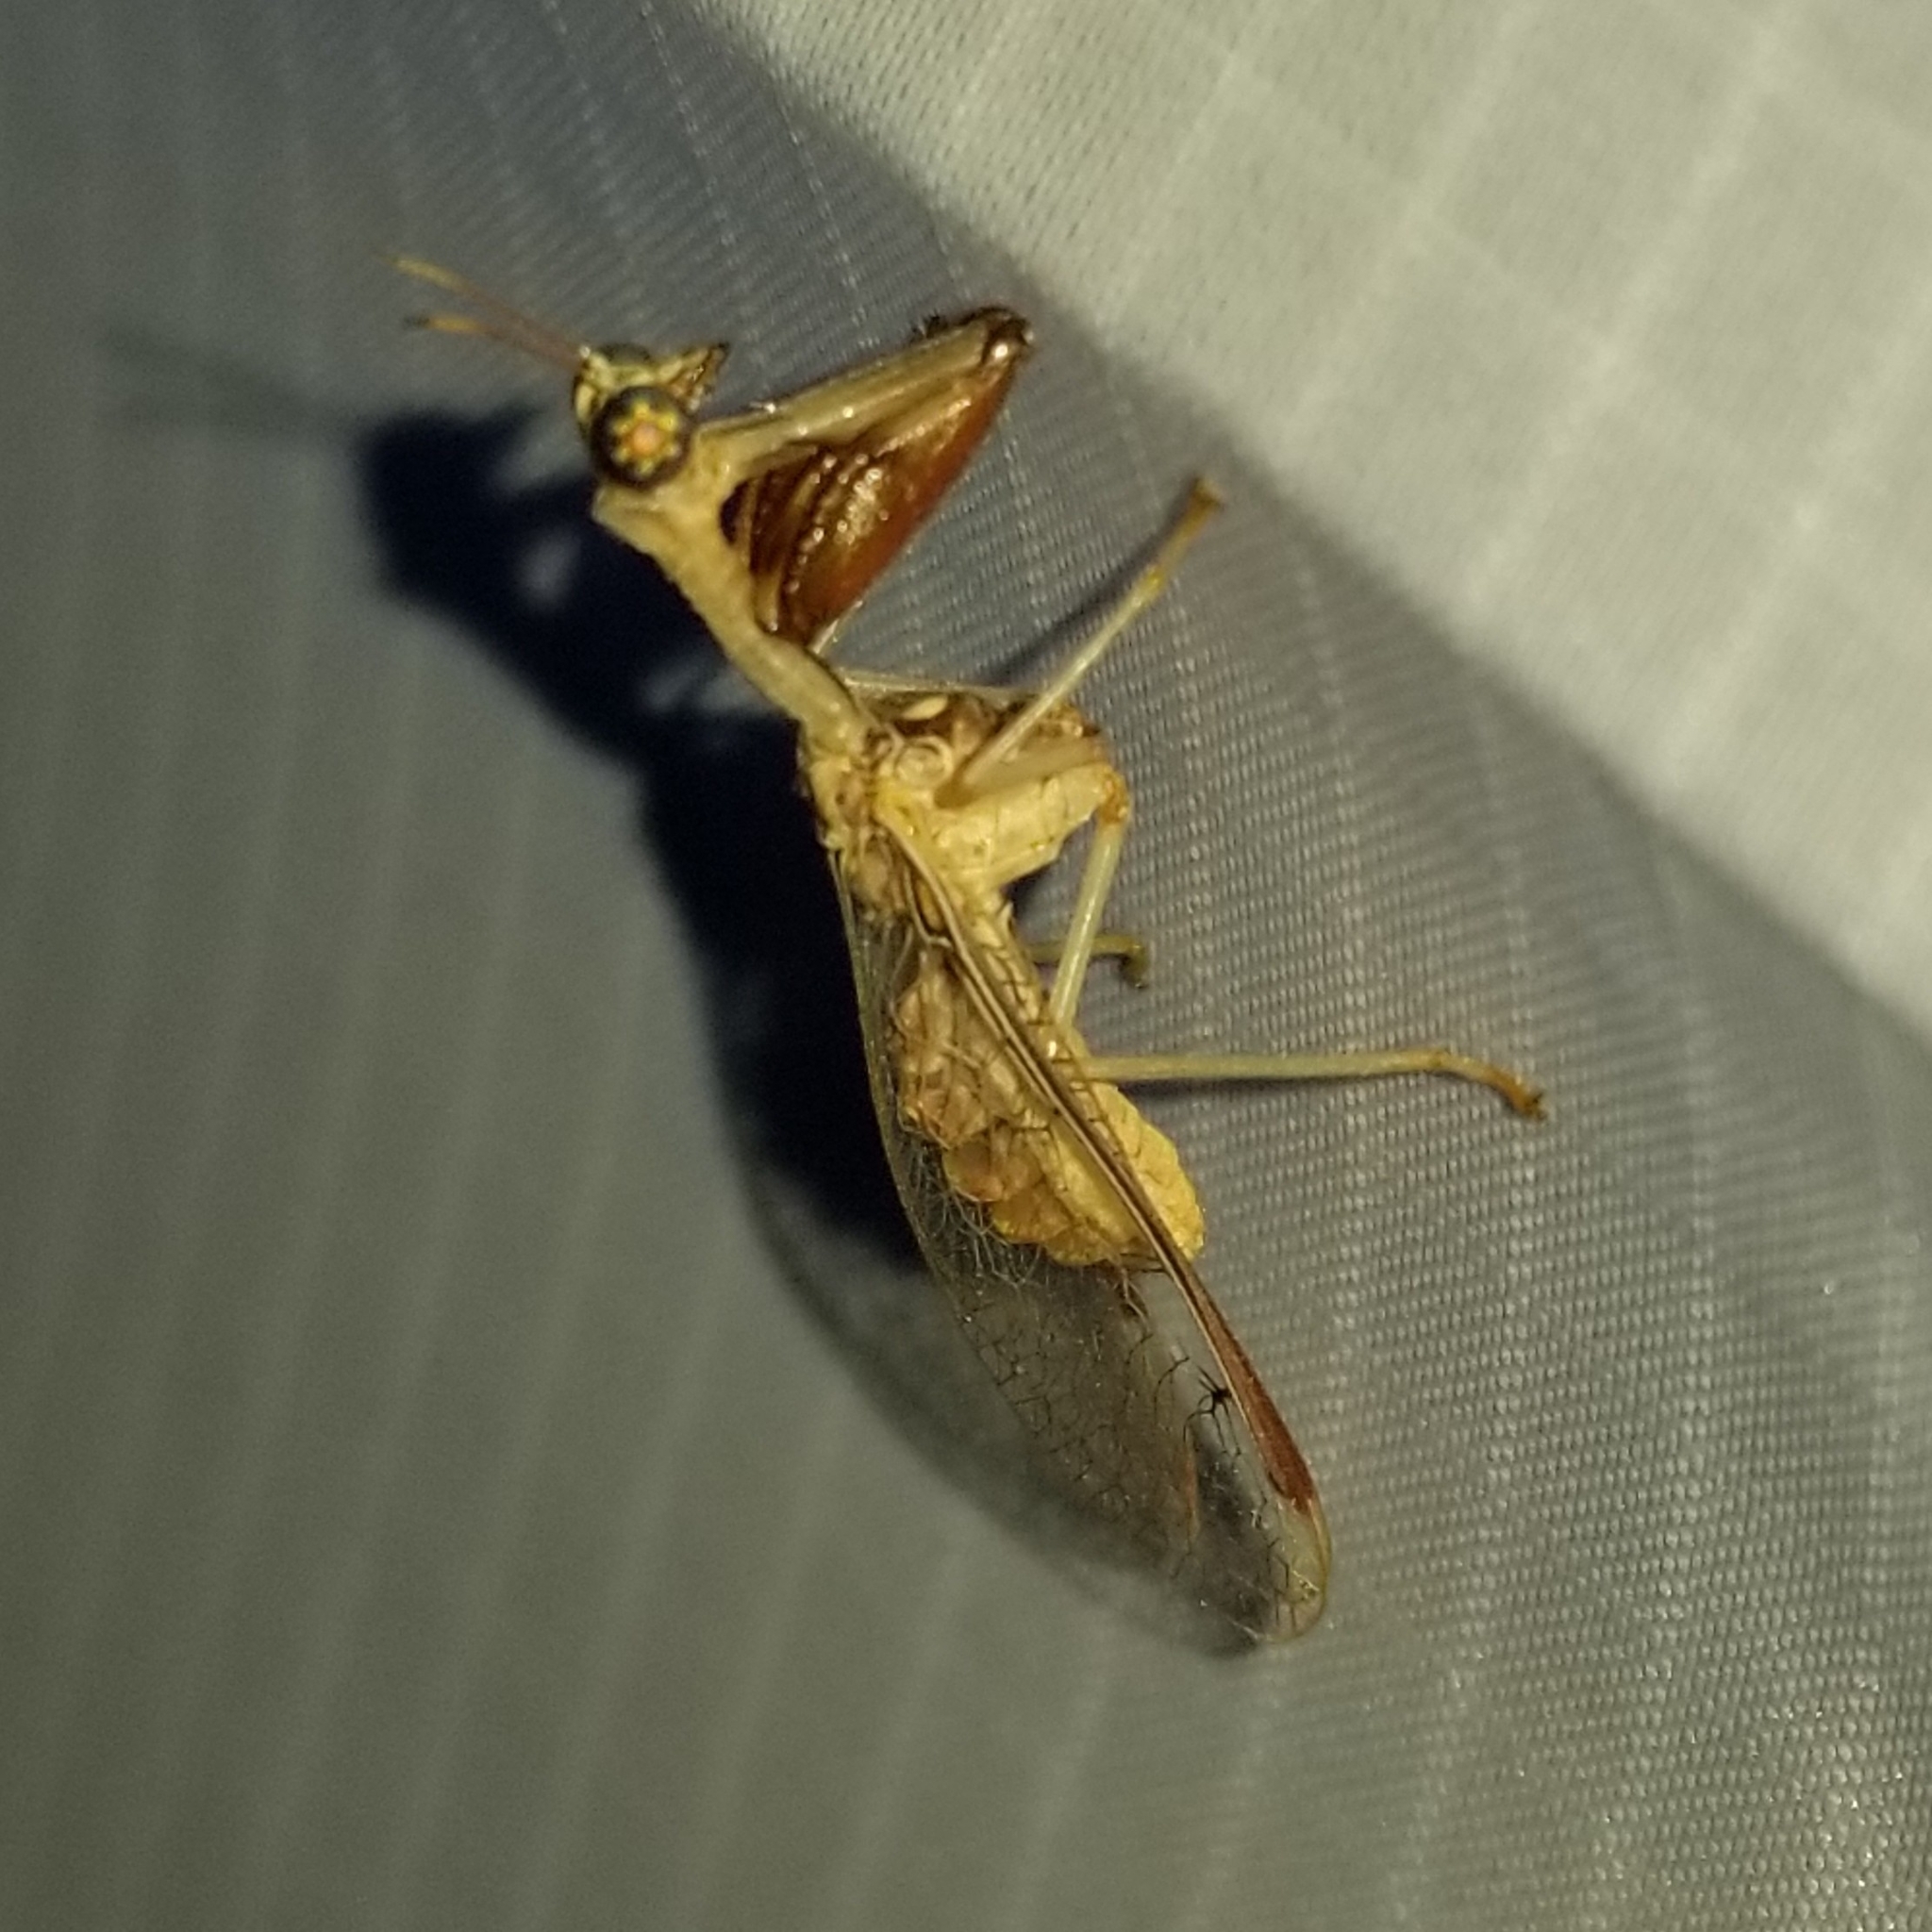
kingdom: Animalia
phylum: Arthropoda
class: Insecta
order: Neuroptera
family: Mantispidae
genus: Dicromantispa
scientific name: Dicromantispa interrupta
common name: Four-spotted mantidfly
